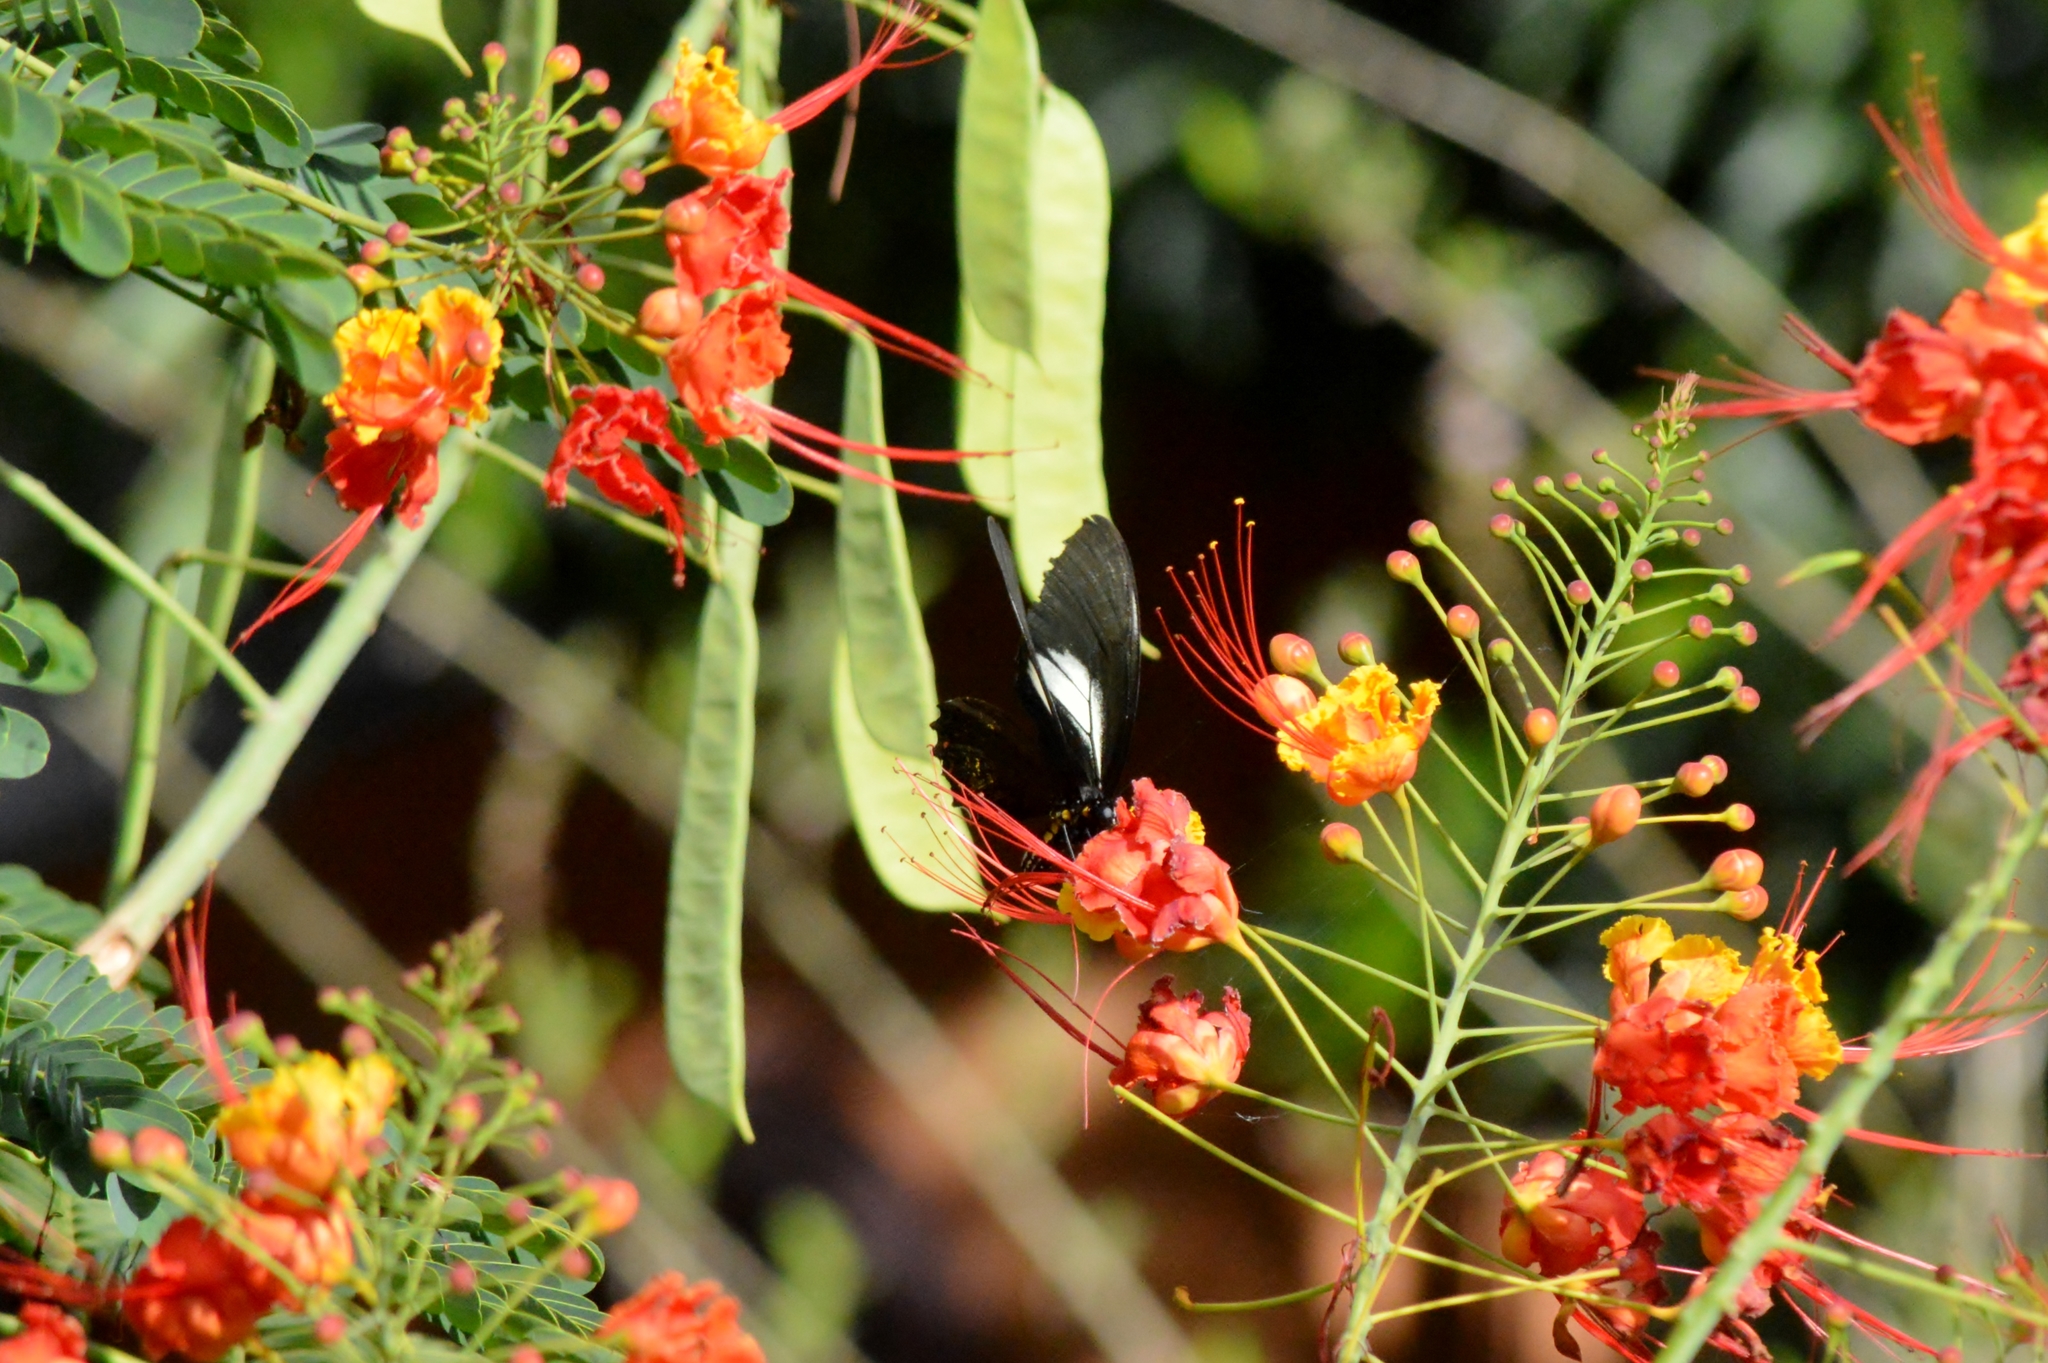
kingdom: Animalia
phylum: Arthropoda
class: Insecta
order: Lepidoptera
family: Papilionidae
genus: Battus
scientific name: Battus crassus
